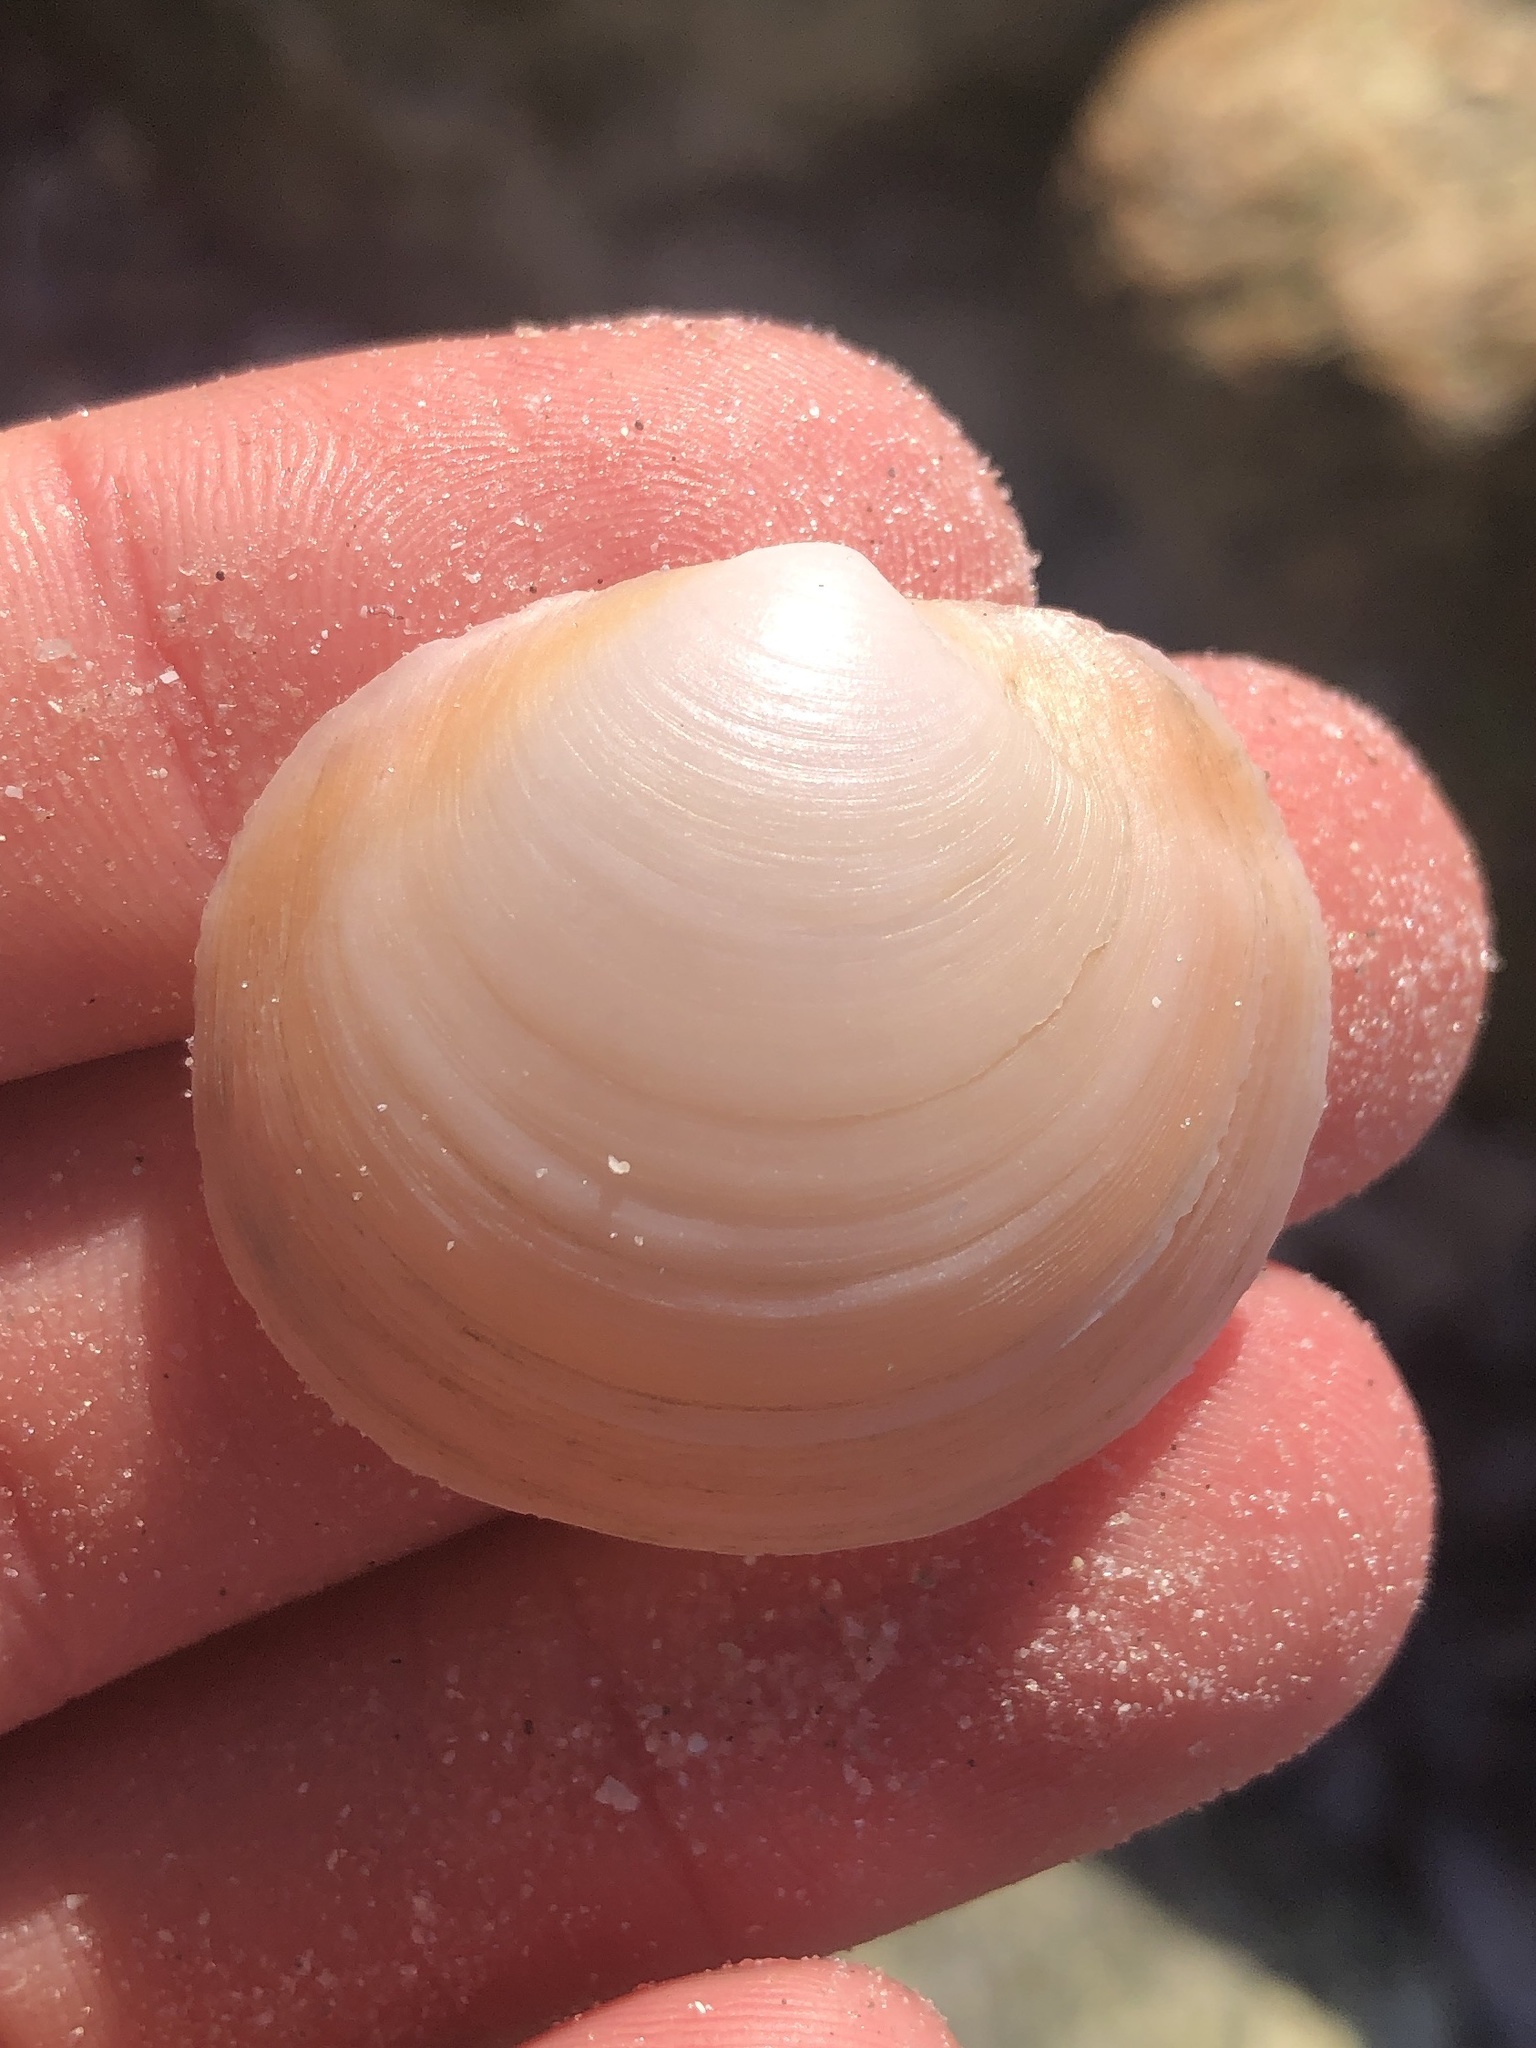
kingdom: Animalia
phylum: Mollusca
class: Bivalvia
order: Lucinida
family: Lucinidae
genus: Anodontia
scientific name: Anodontia alba
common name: Buttercup lucine
